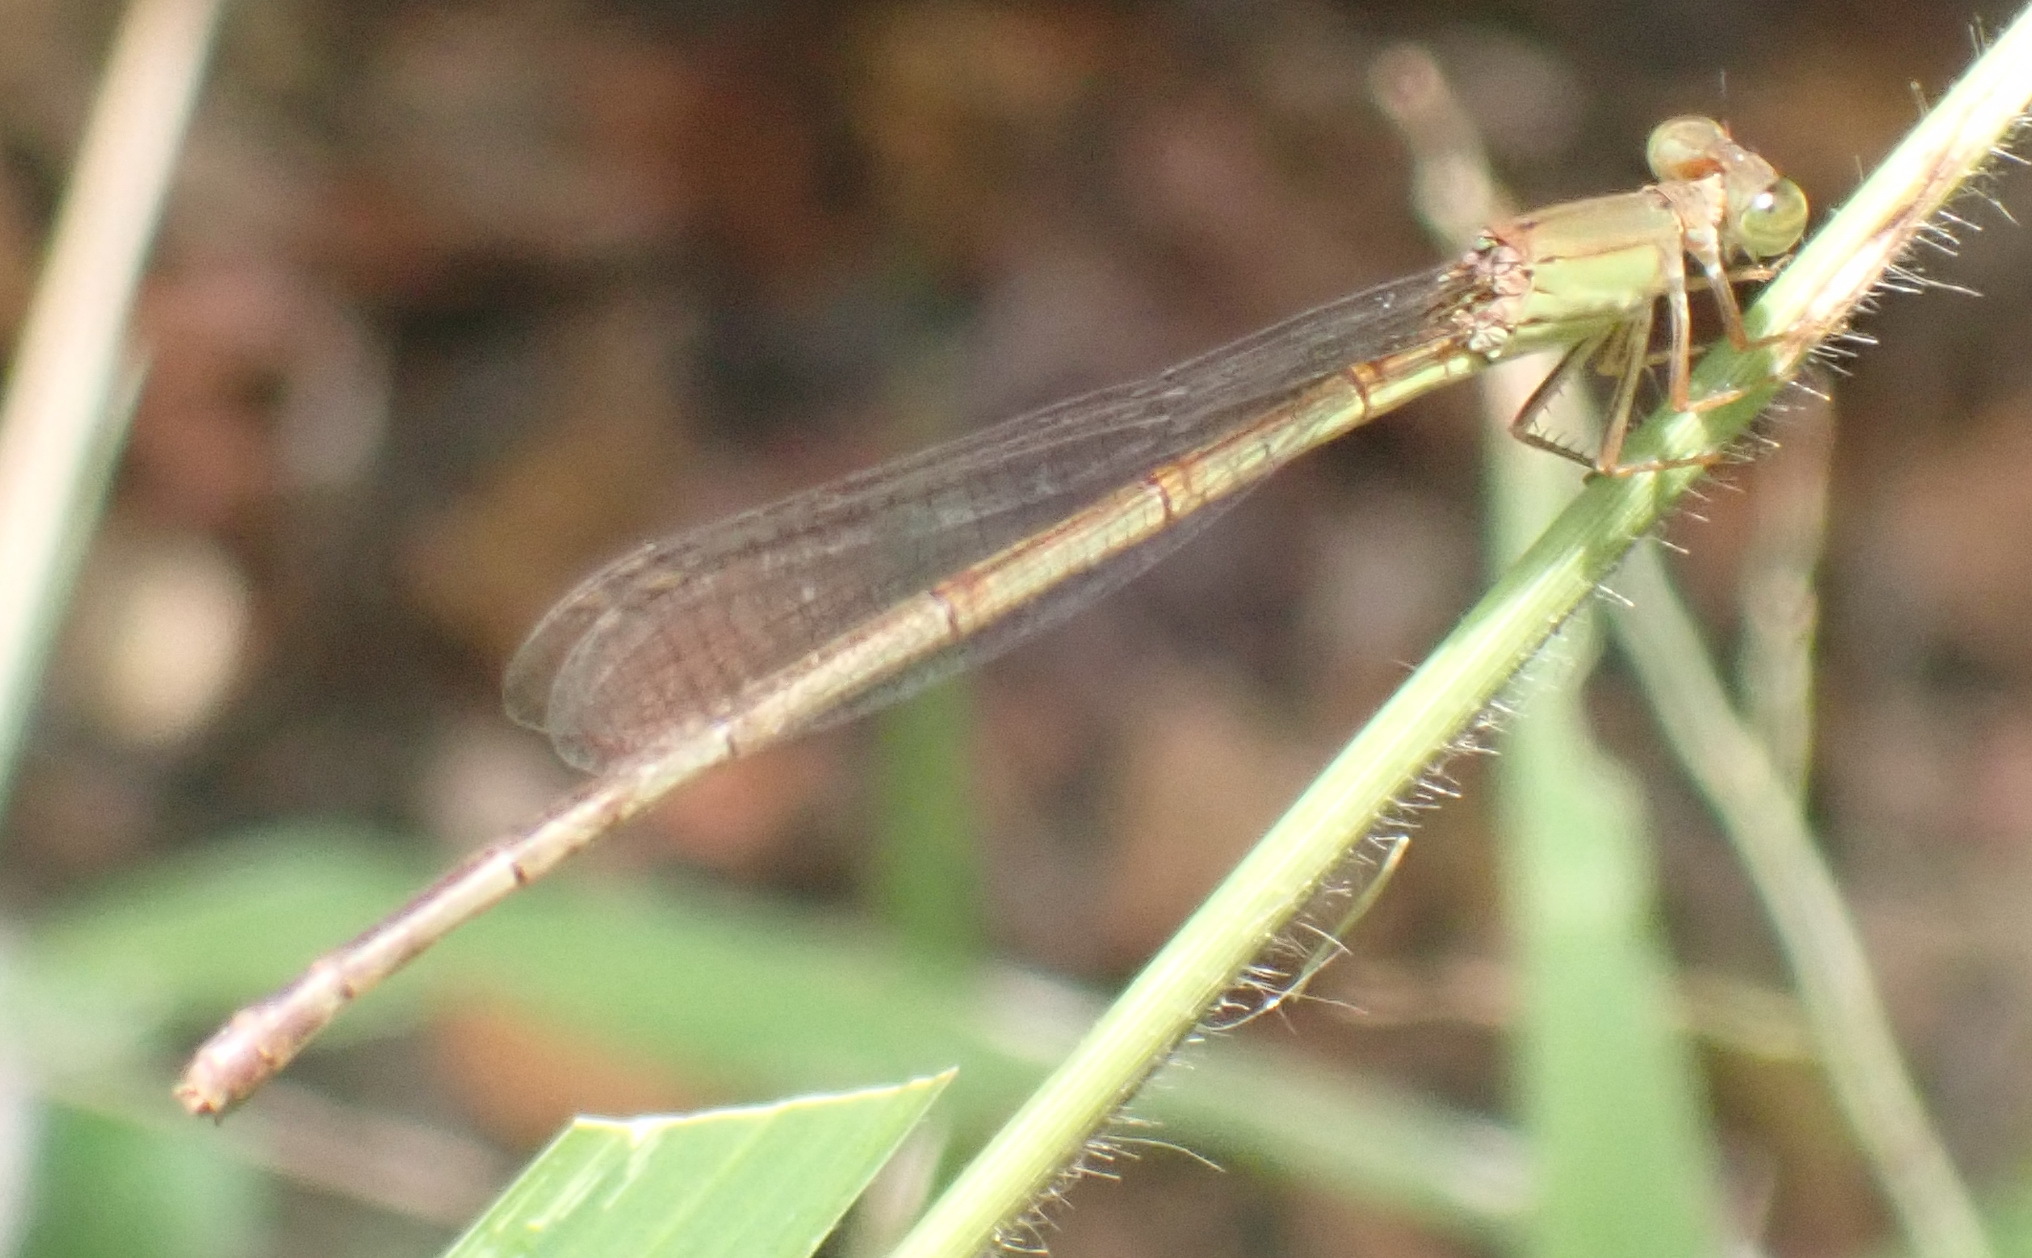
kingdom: Animalia
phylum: Arthropoda
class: Insecta
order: Odonata
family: Coenagrionidae
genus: Ceriagrion
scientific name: Ceriagrion glabrum
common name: Common pond damsel
